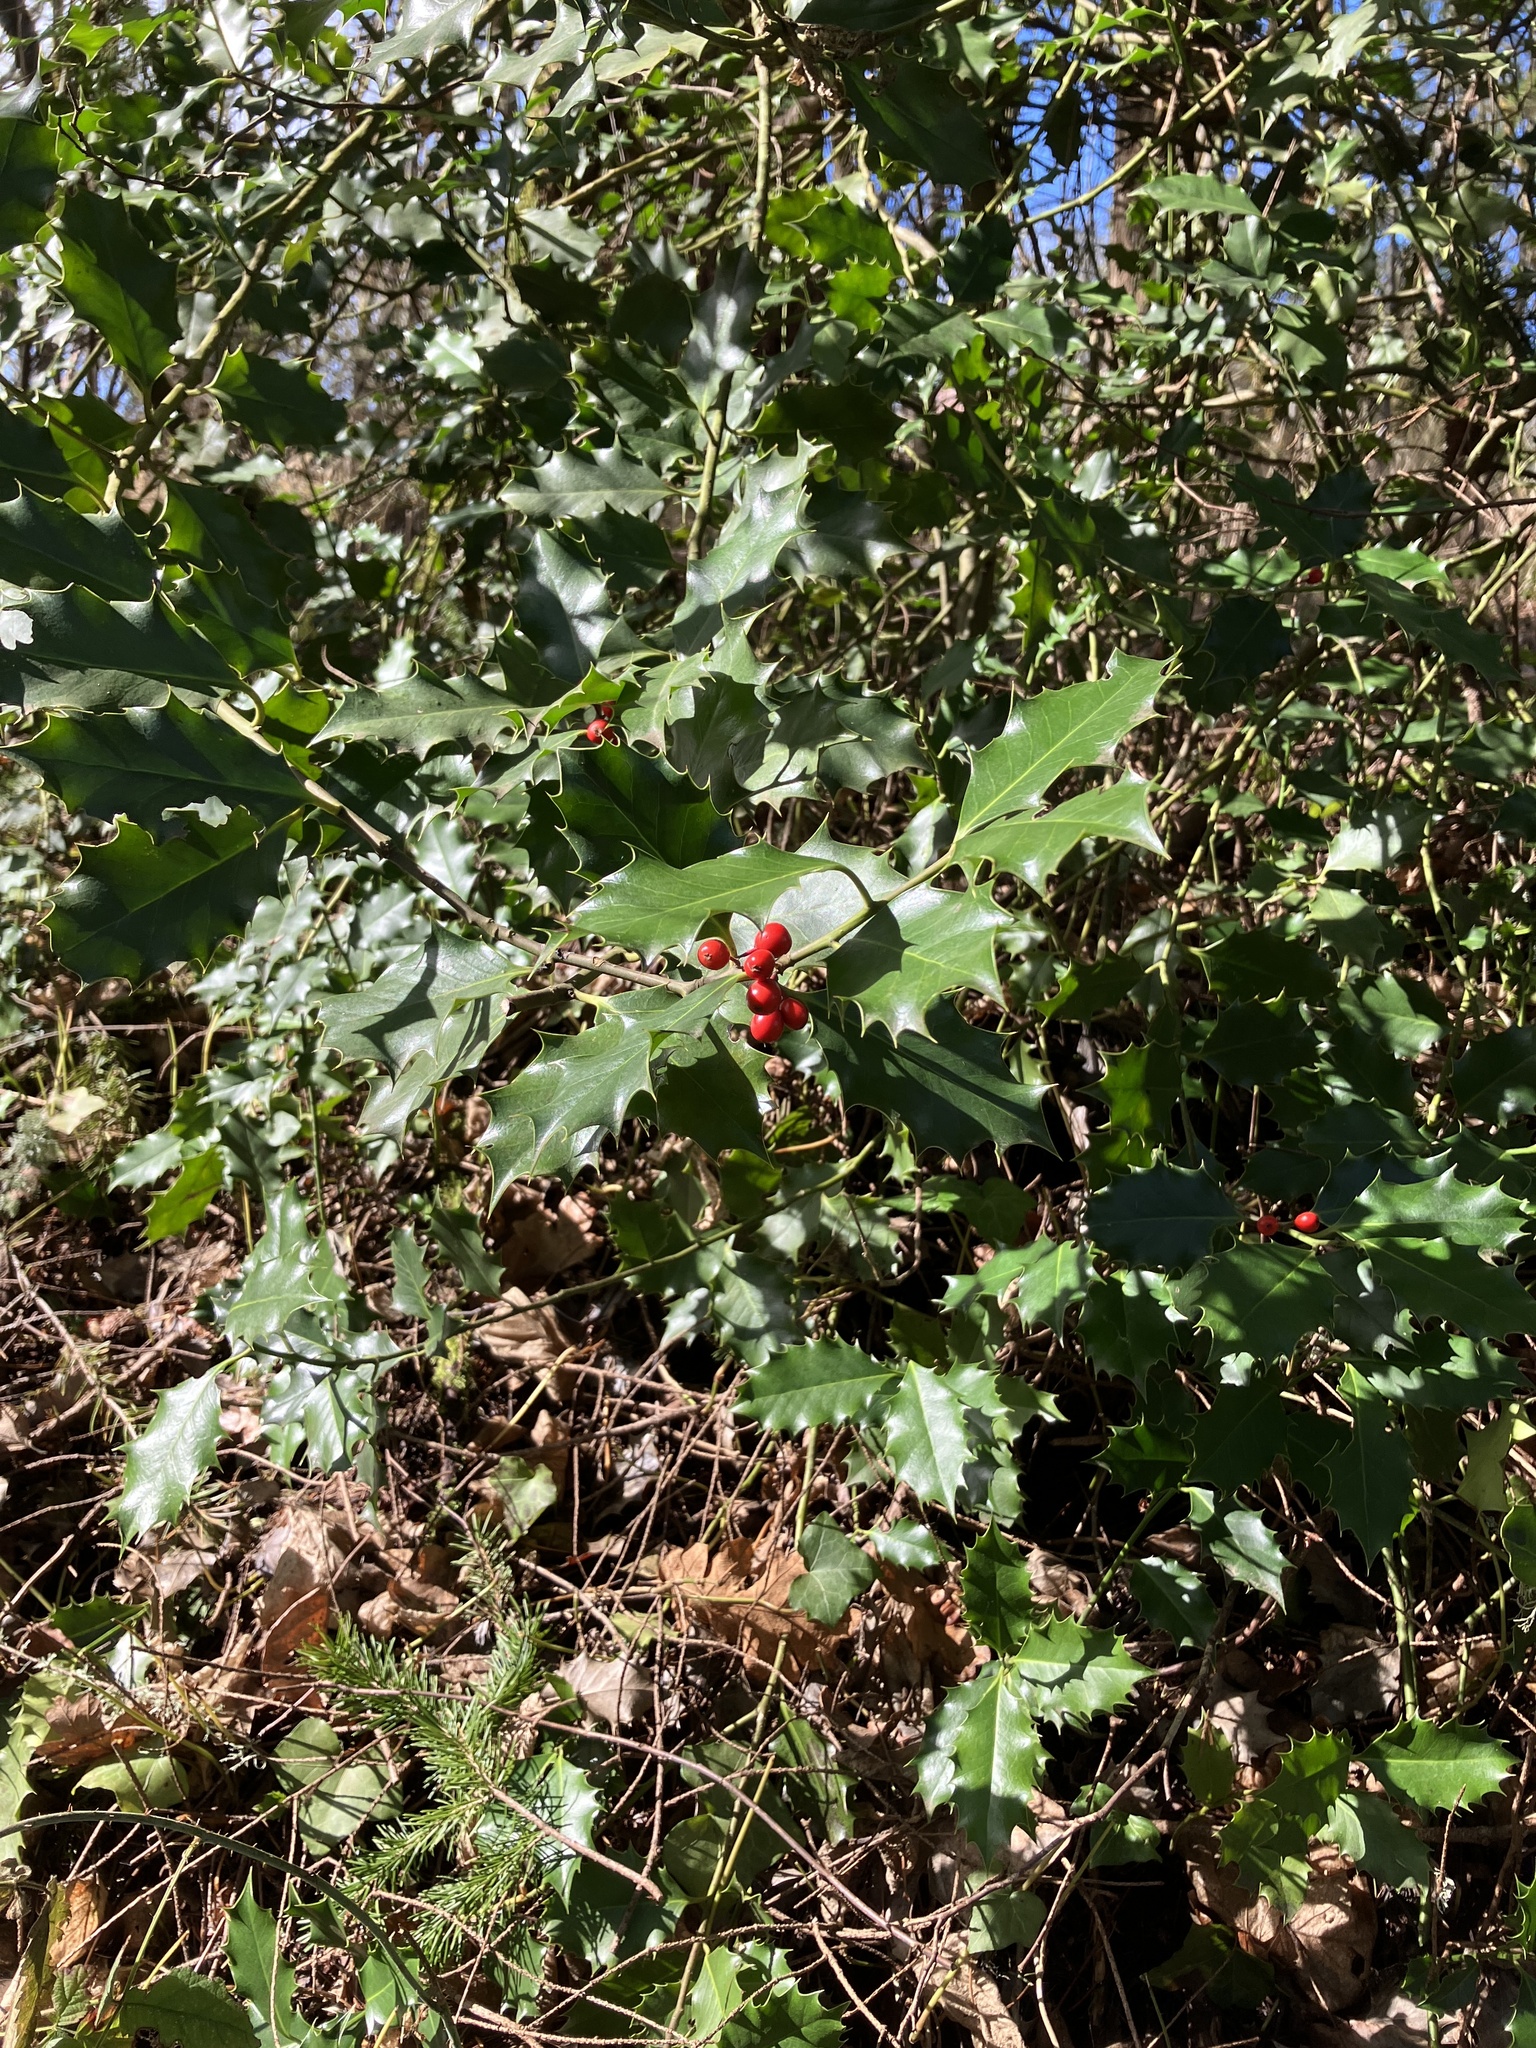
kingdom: Plantae
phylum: Tracheophyta
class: Magnoliopsida
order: Aquifoliales
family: Aquifoliaceae
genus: Ilex
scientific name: Ilex aquifolium
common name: English holly
